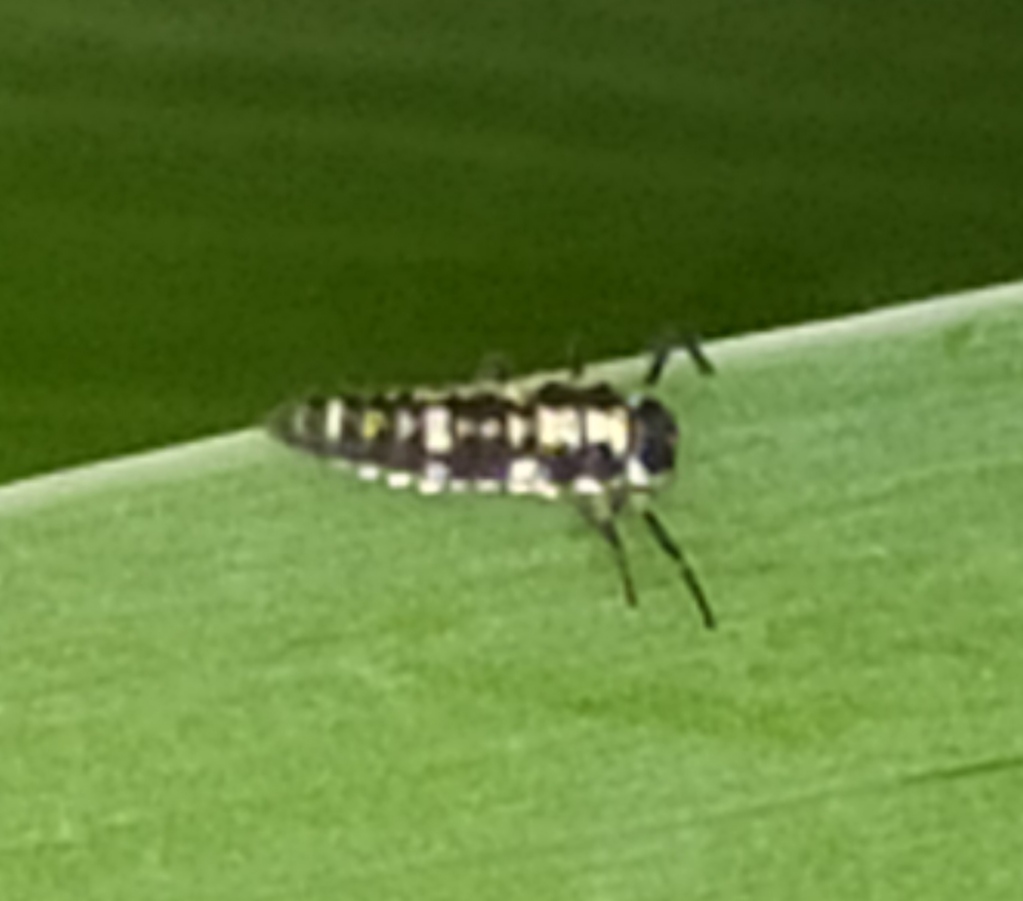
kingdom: Animalia
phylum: Arthropoda
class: Insecta
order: Coleoptera
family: Coccinellidae
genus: Propylaea
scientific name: Propylaea quatuordecimpunctata
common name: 14-spotted ladybird beetle
